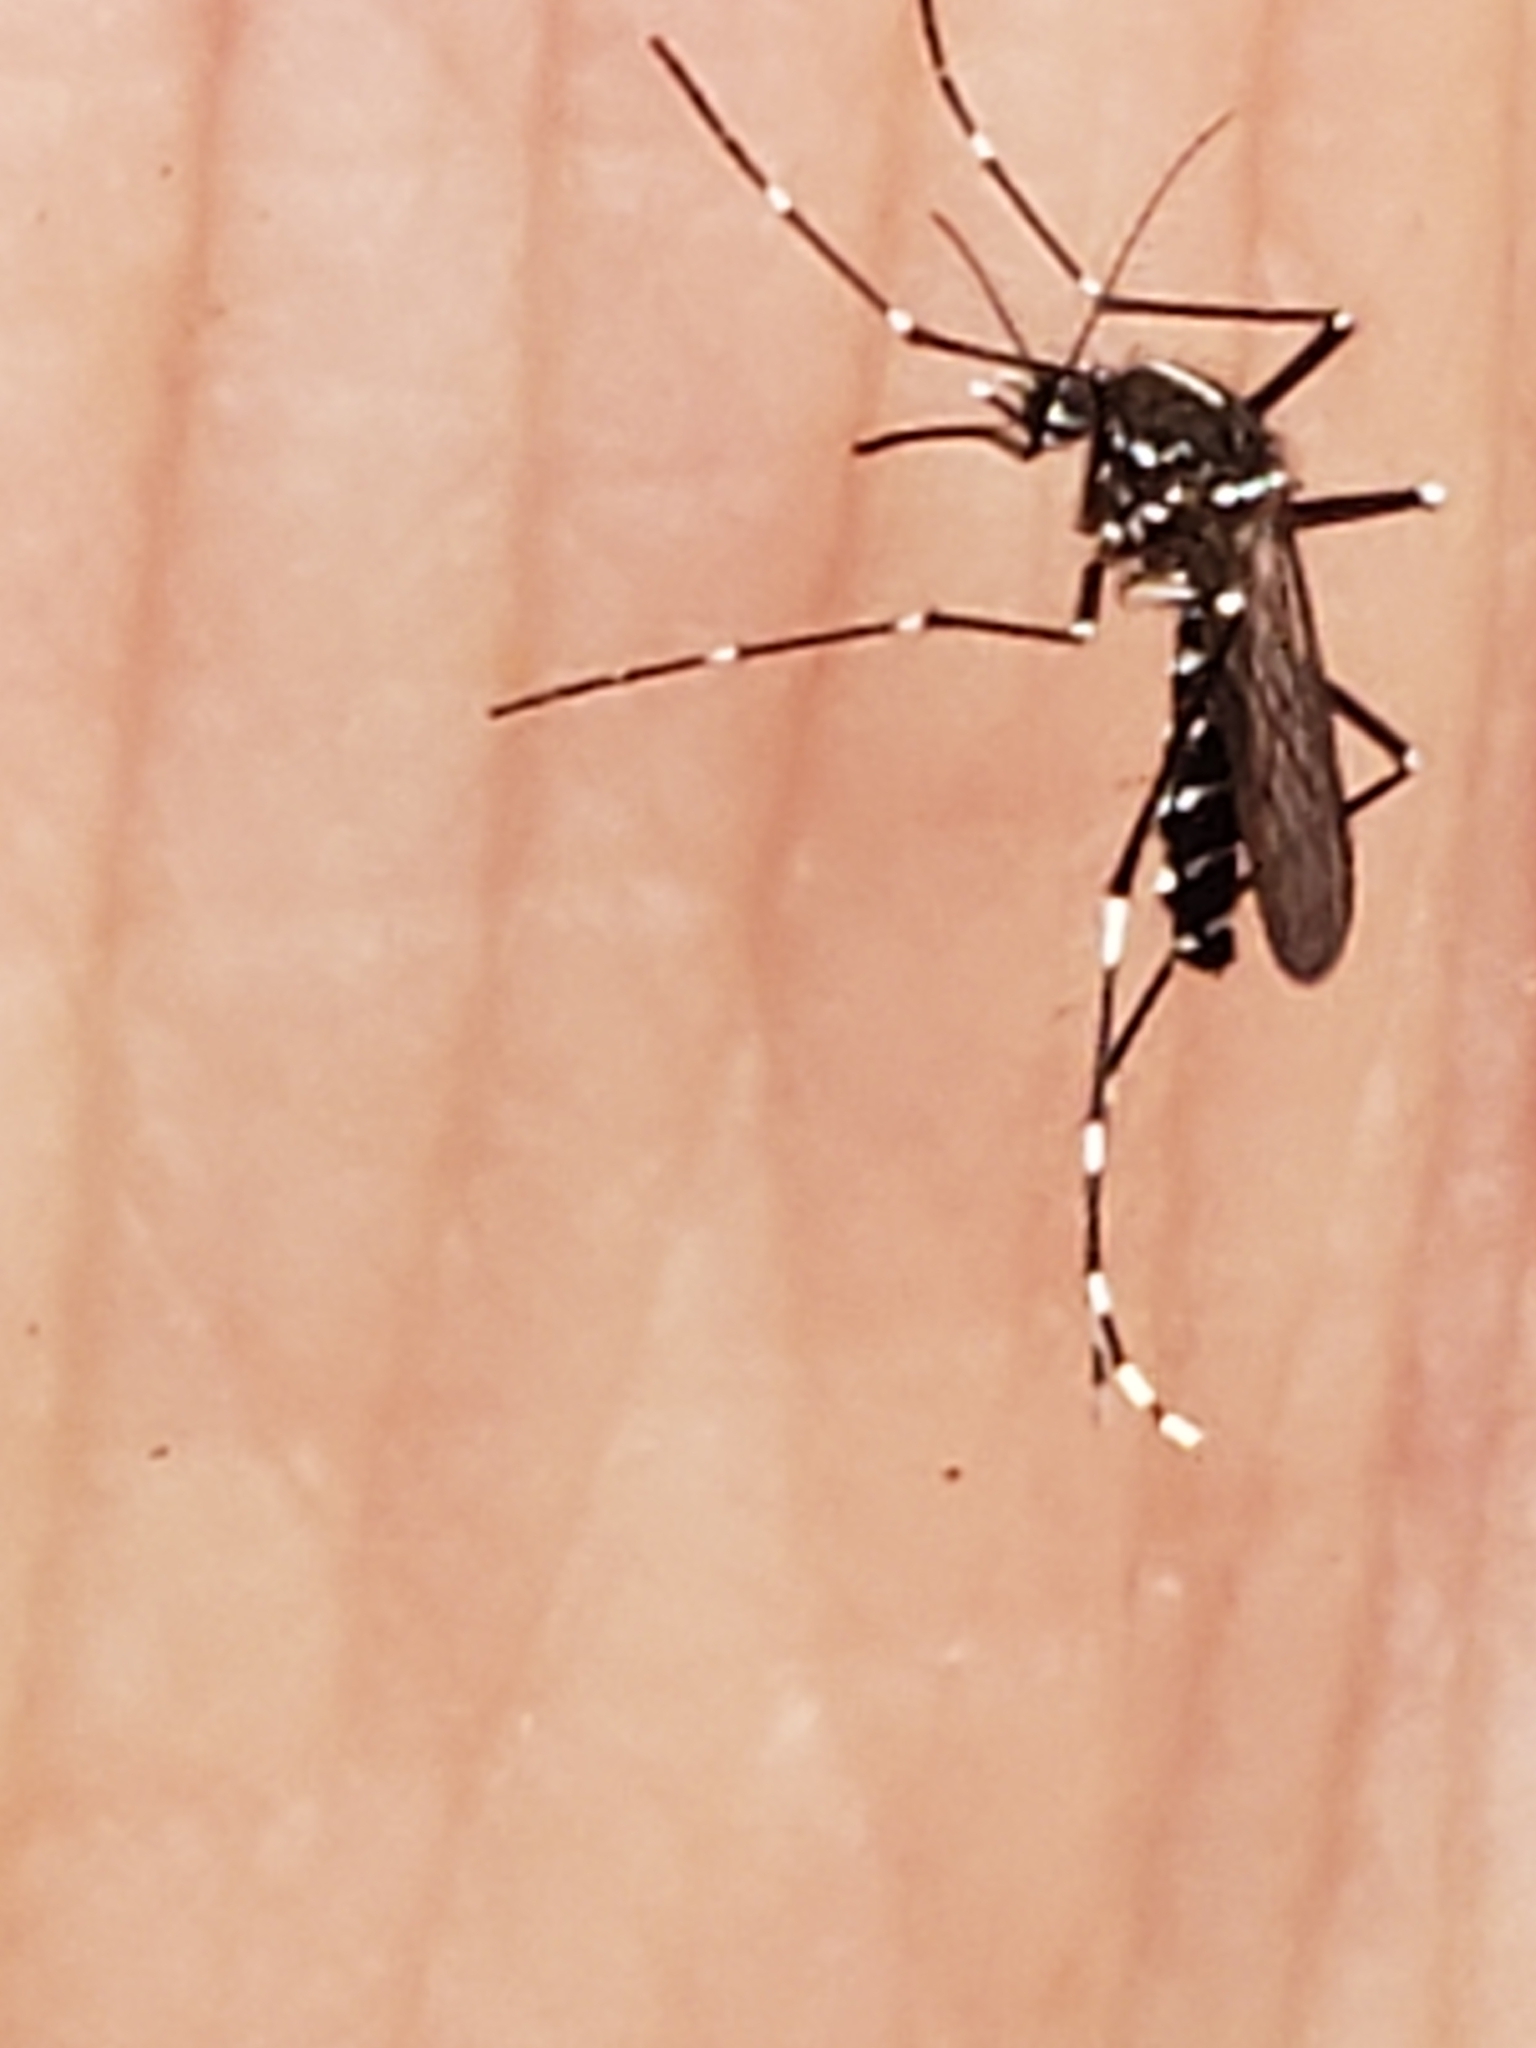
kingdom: Animalia
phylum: Arthropoda
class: Insecta
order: Diptera
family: Culicidae
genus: Aedes
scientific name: Aedes albopictus
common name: Tiger mosquito
